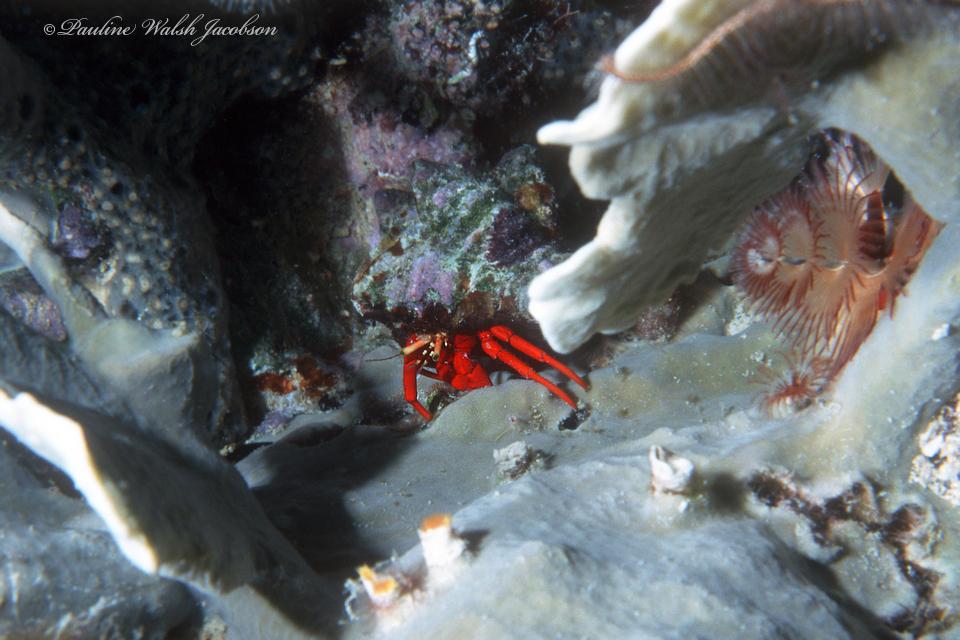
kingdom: Animalia
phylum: Arthropoda
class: Malacostraca
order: Decapoda
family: Diogenidae
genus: Paguristes
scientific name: Paguristes cadenati
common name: Red reef hermit
